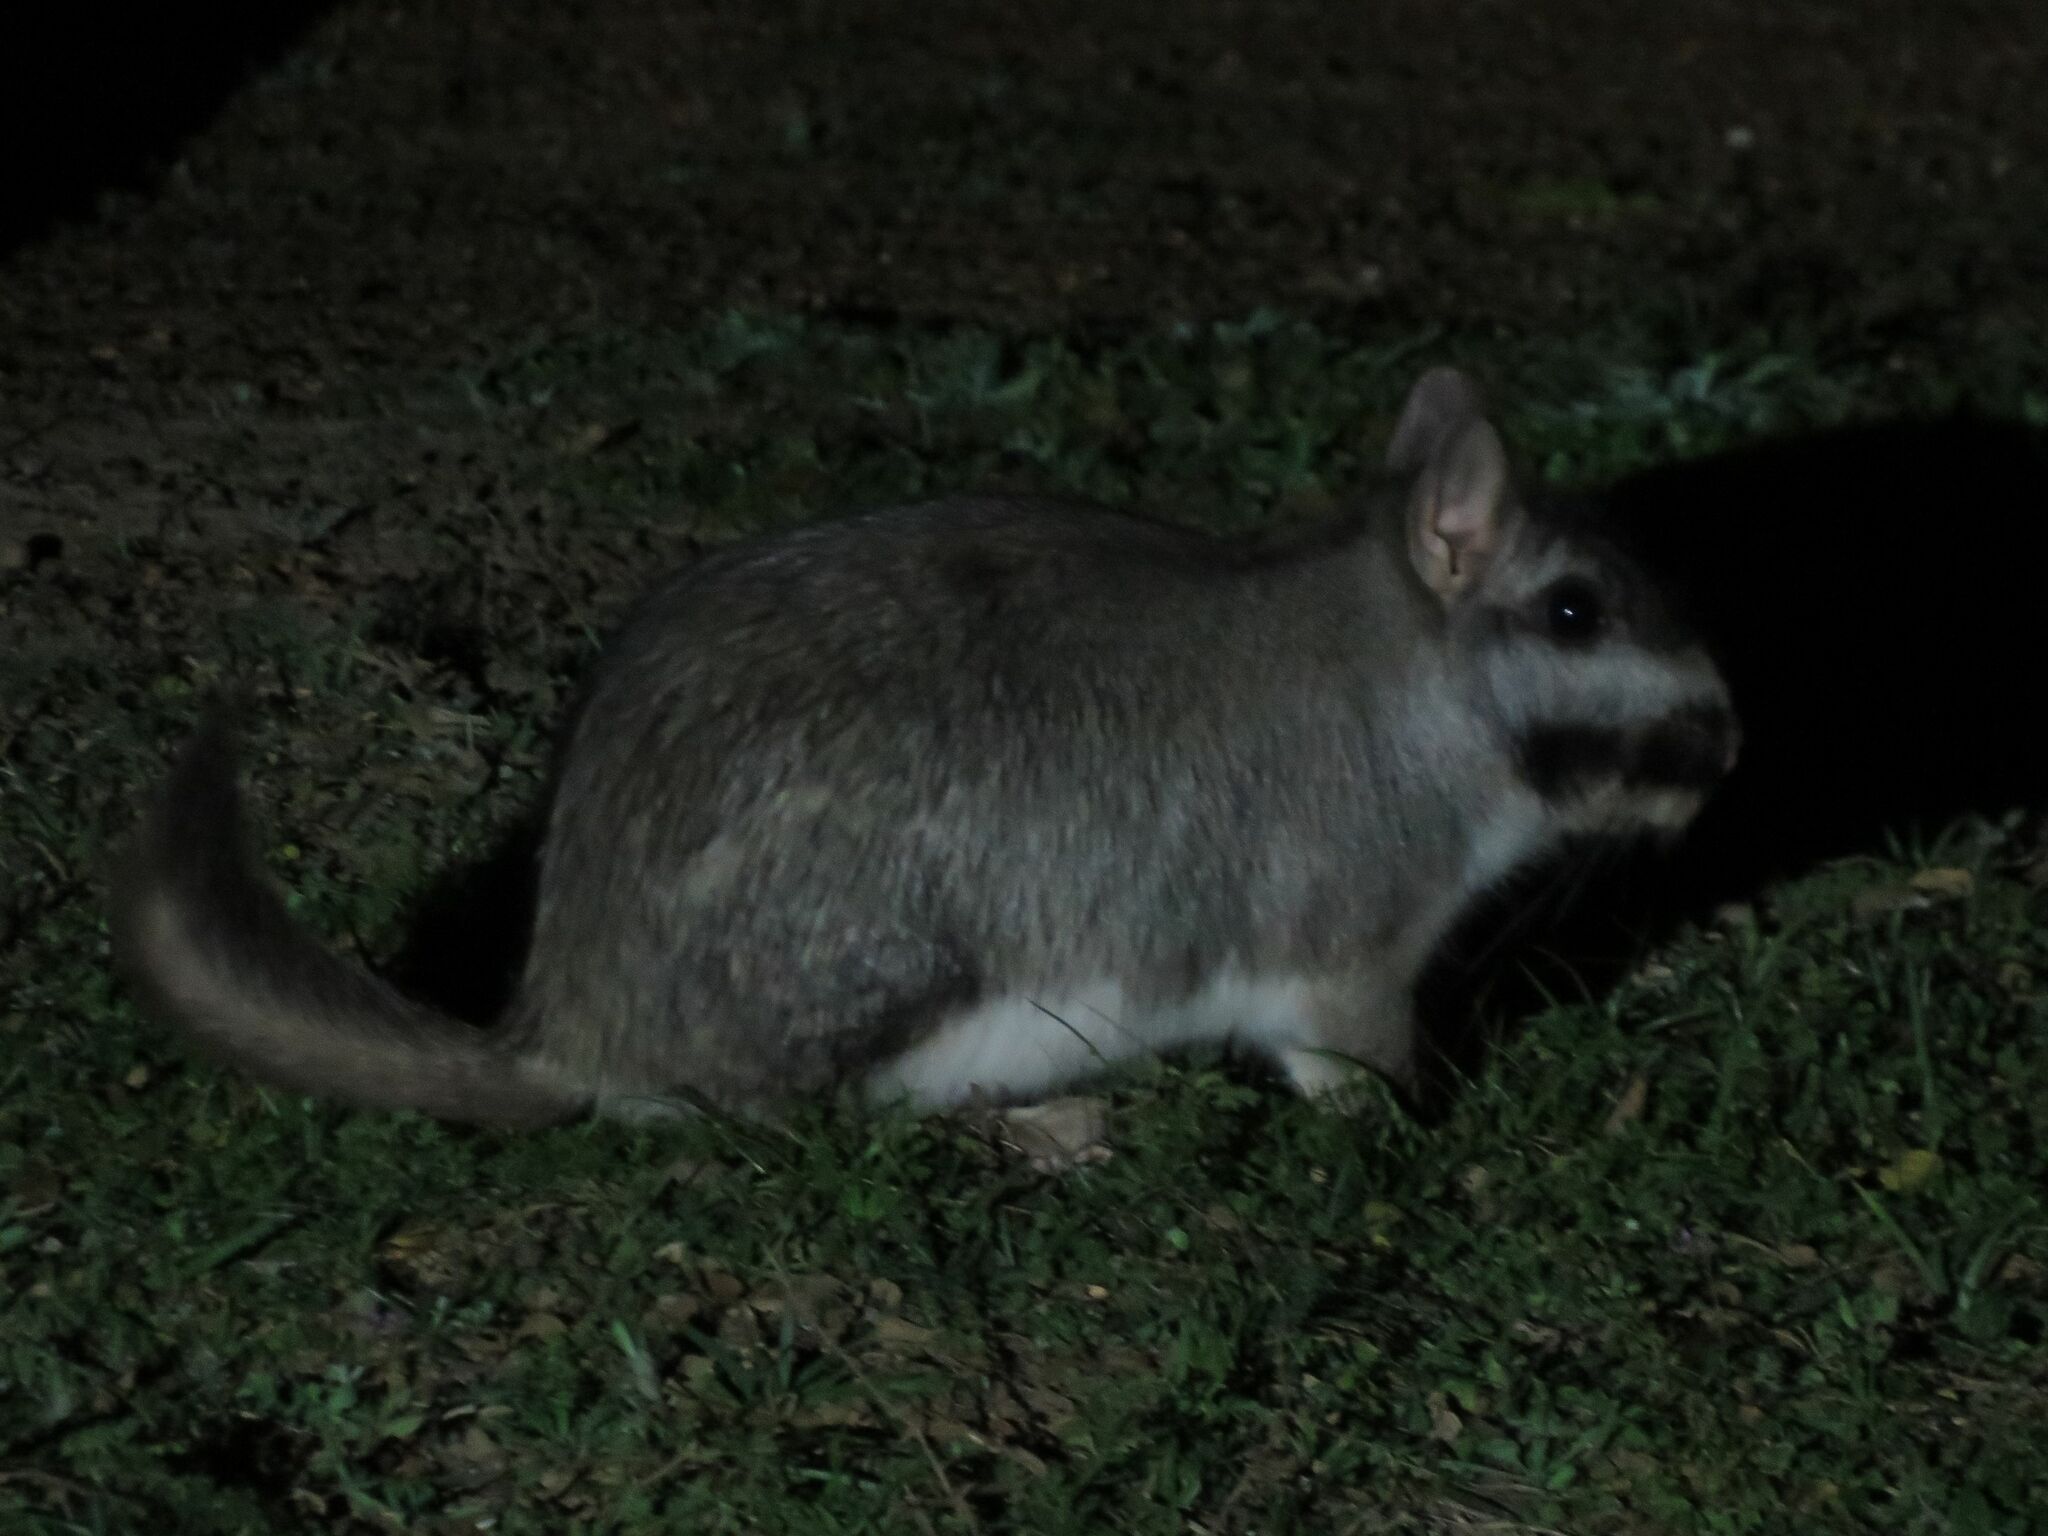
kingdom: Animalia
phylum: Chordata
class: Mammalia
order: Rodentia
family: Chinchillidae
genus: Lagostomus
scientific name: Lagostomus maximus
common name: Plains viscacha
